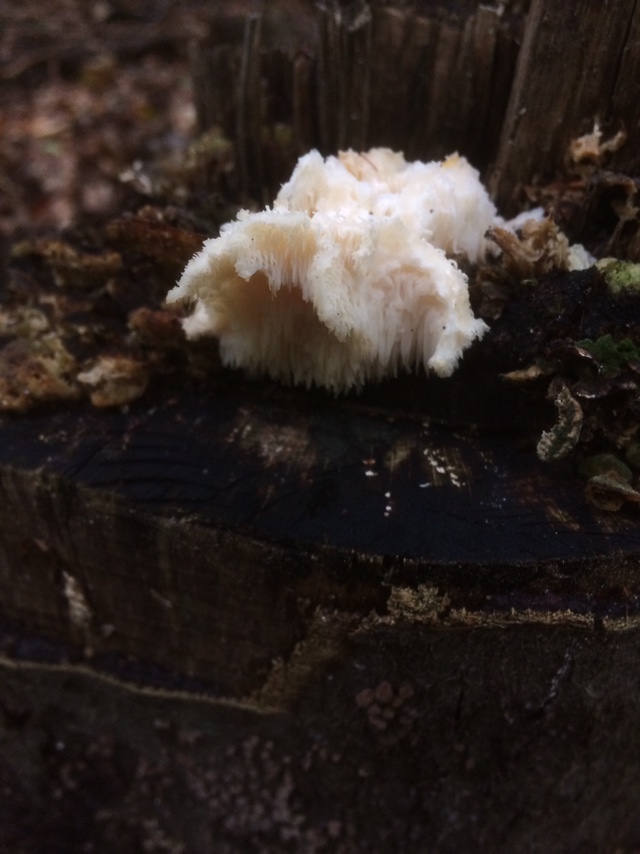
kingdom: Fungi
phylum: Basidiomycota
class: Agaricomycetes
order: Russulales
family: Hericiaceae
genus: Hericium
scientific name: Hericium cirrhatum
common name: Tiered tooth
